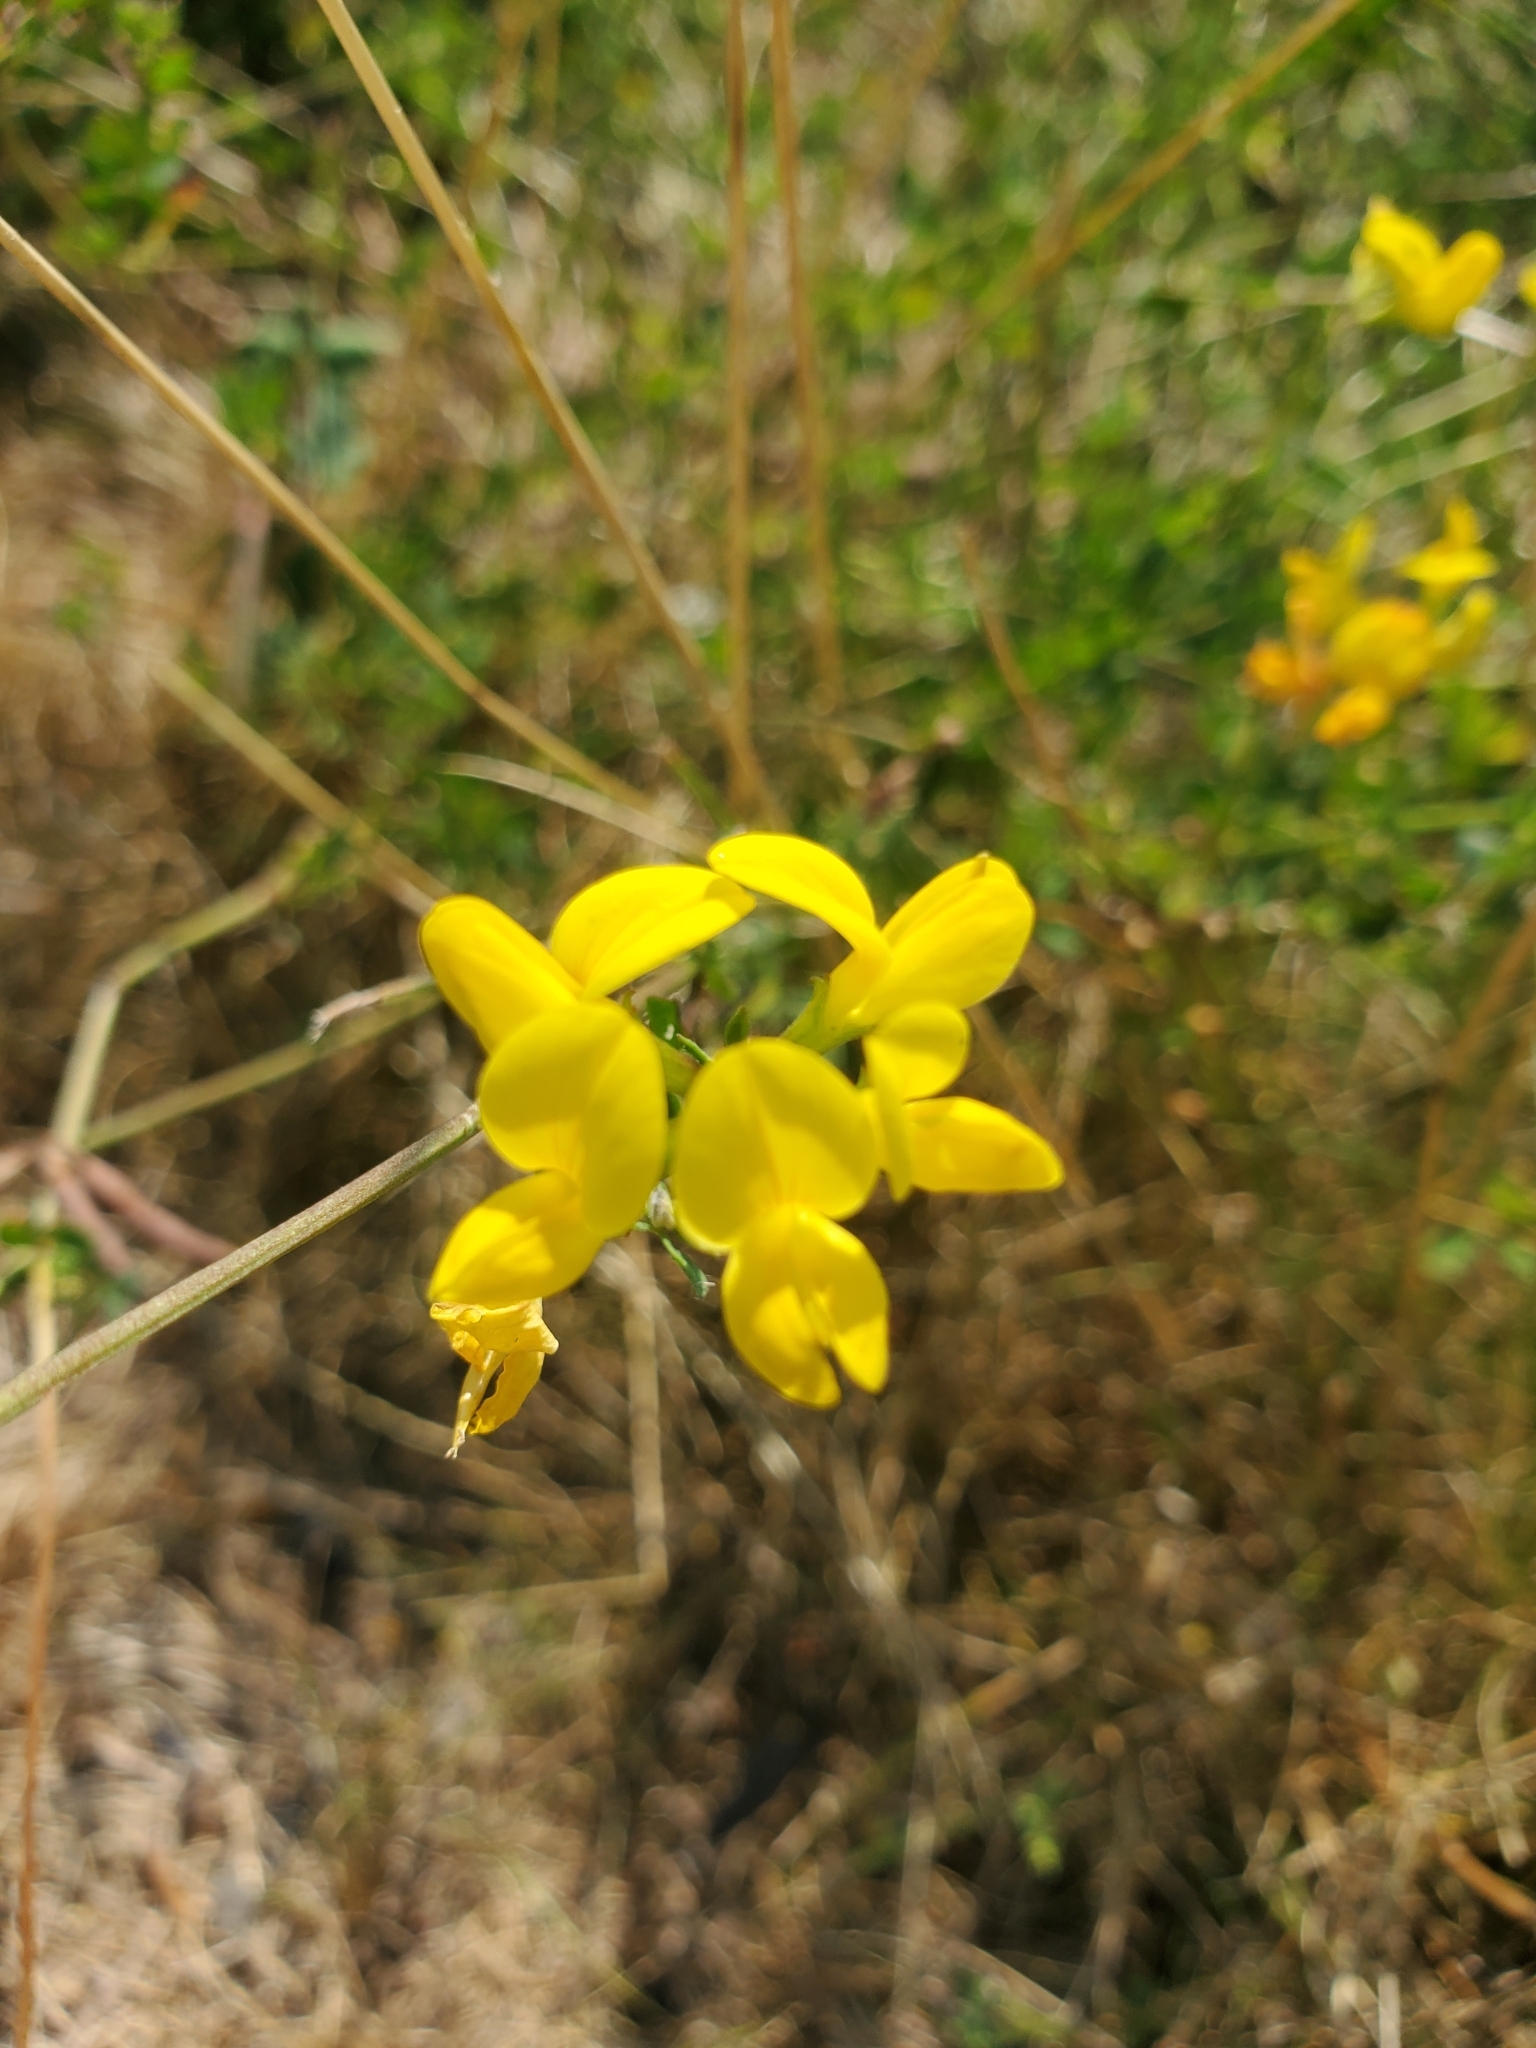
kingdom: Plantae
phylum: Tracheophyta
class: Magnoliopsida
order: Fabales
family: Fabaceae
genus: Lotus
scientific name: Lotus corniculatus
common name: Common bird's-foot-trefoil
